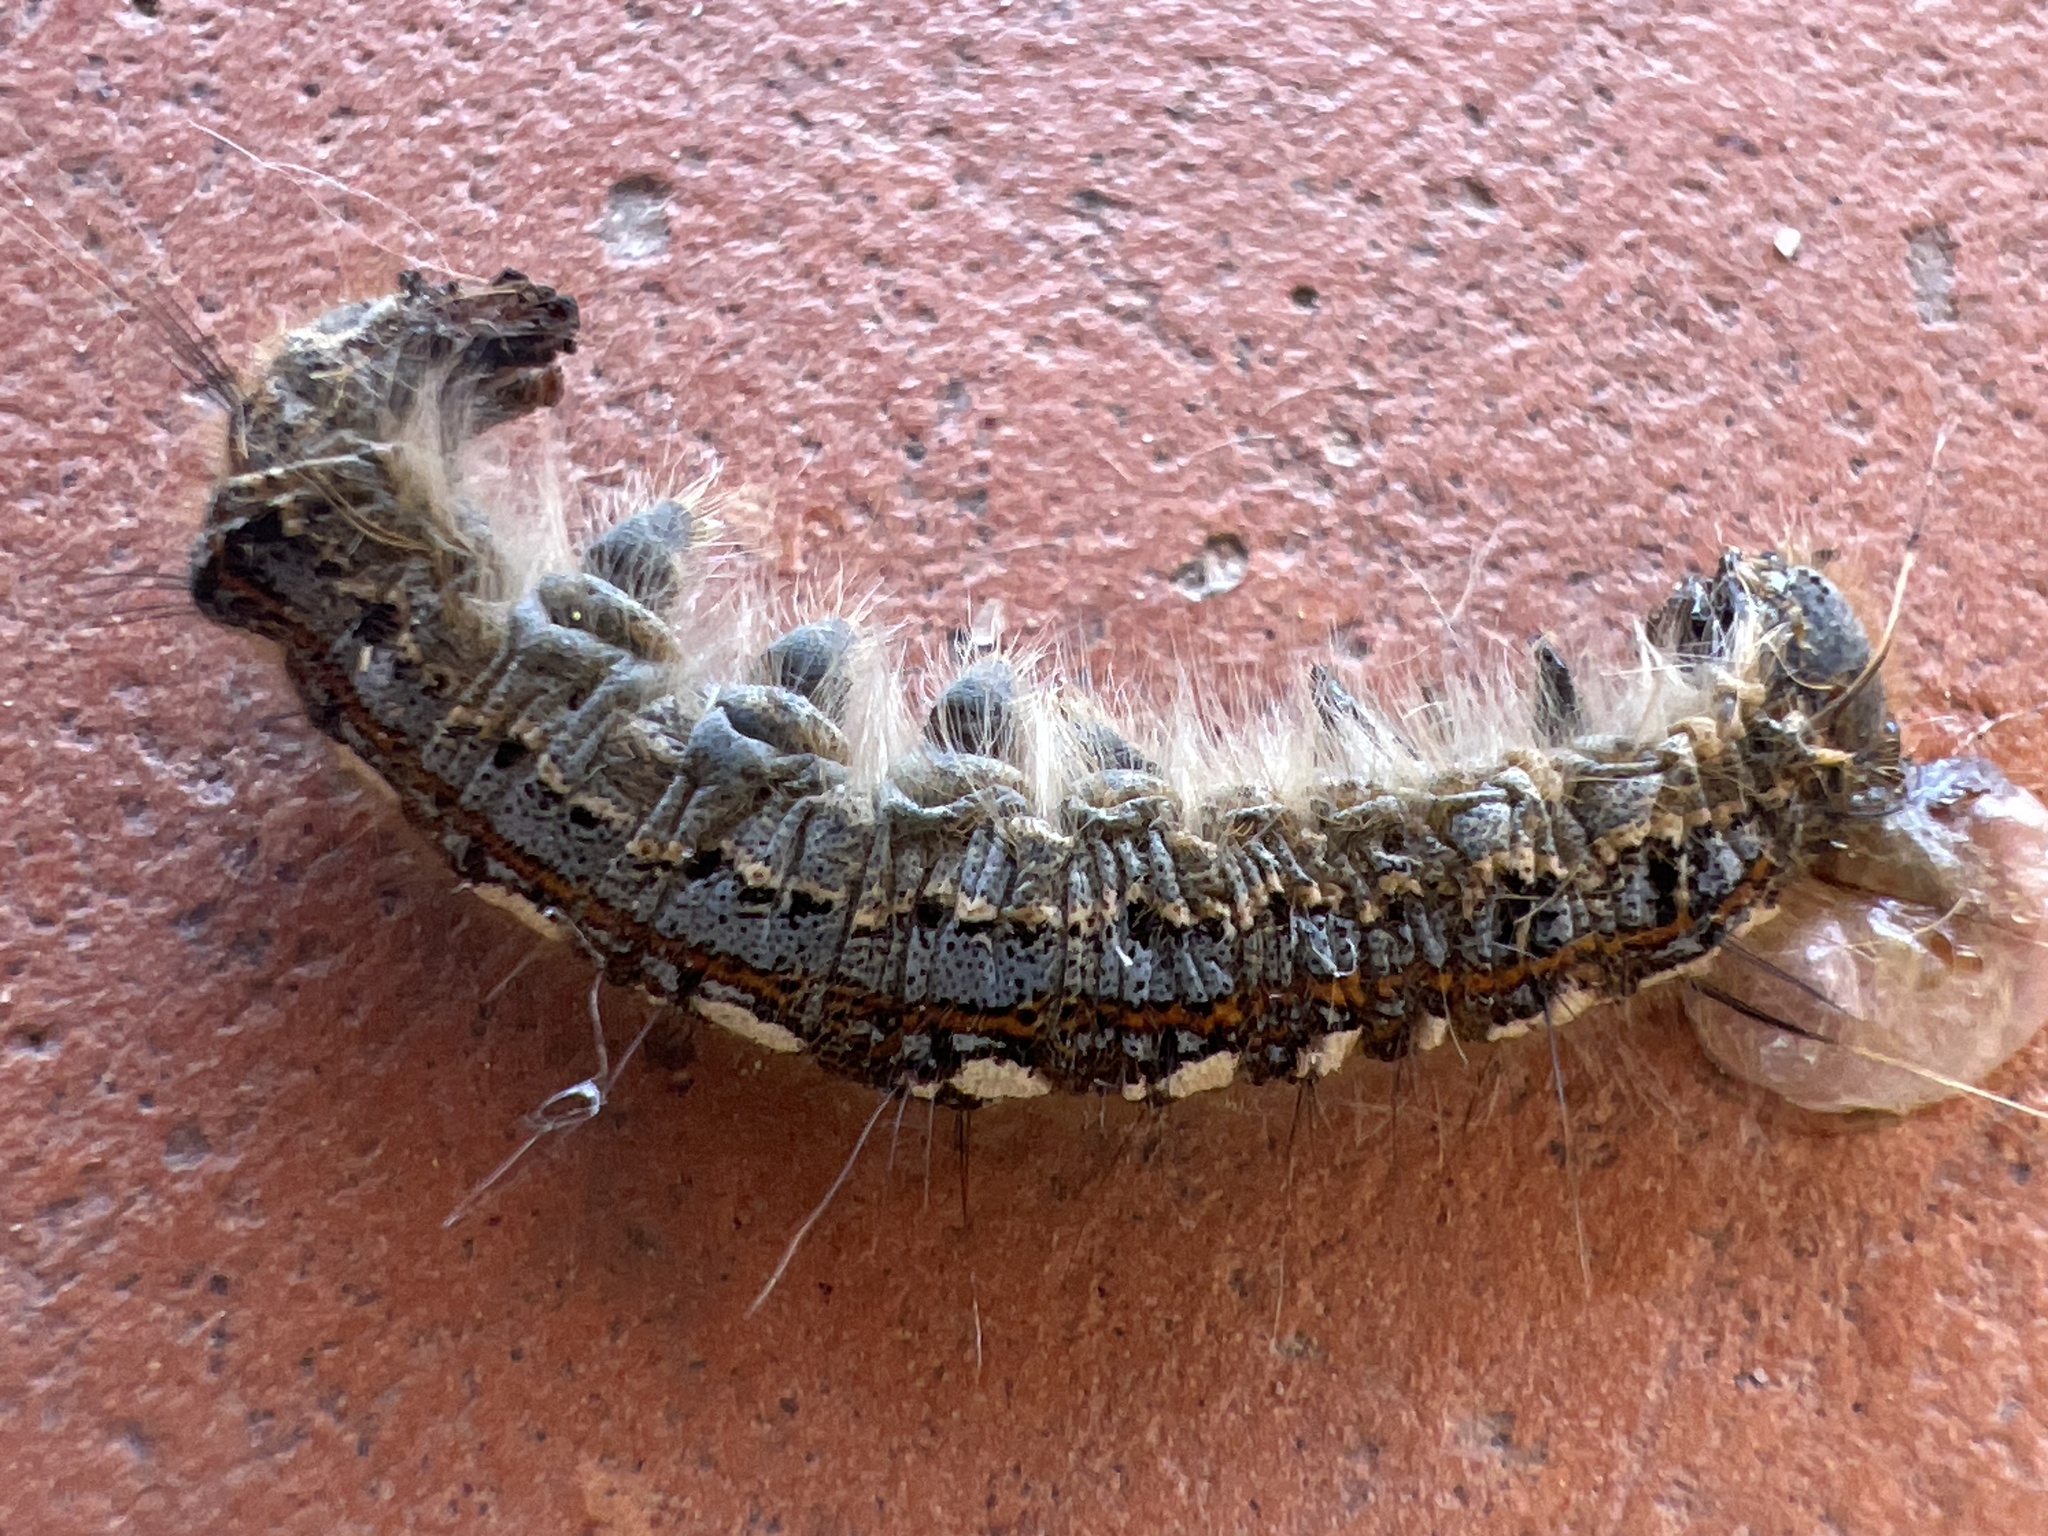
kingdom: Animalia
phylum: Arthropoda
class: Insecta
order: Lepidoptera
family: Lasiocampidae
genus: Malacosoma
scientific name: Malacosoma disstria
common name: Forest tent caterpillar
